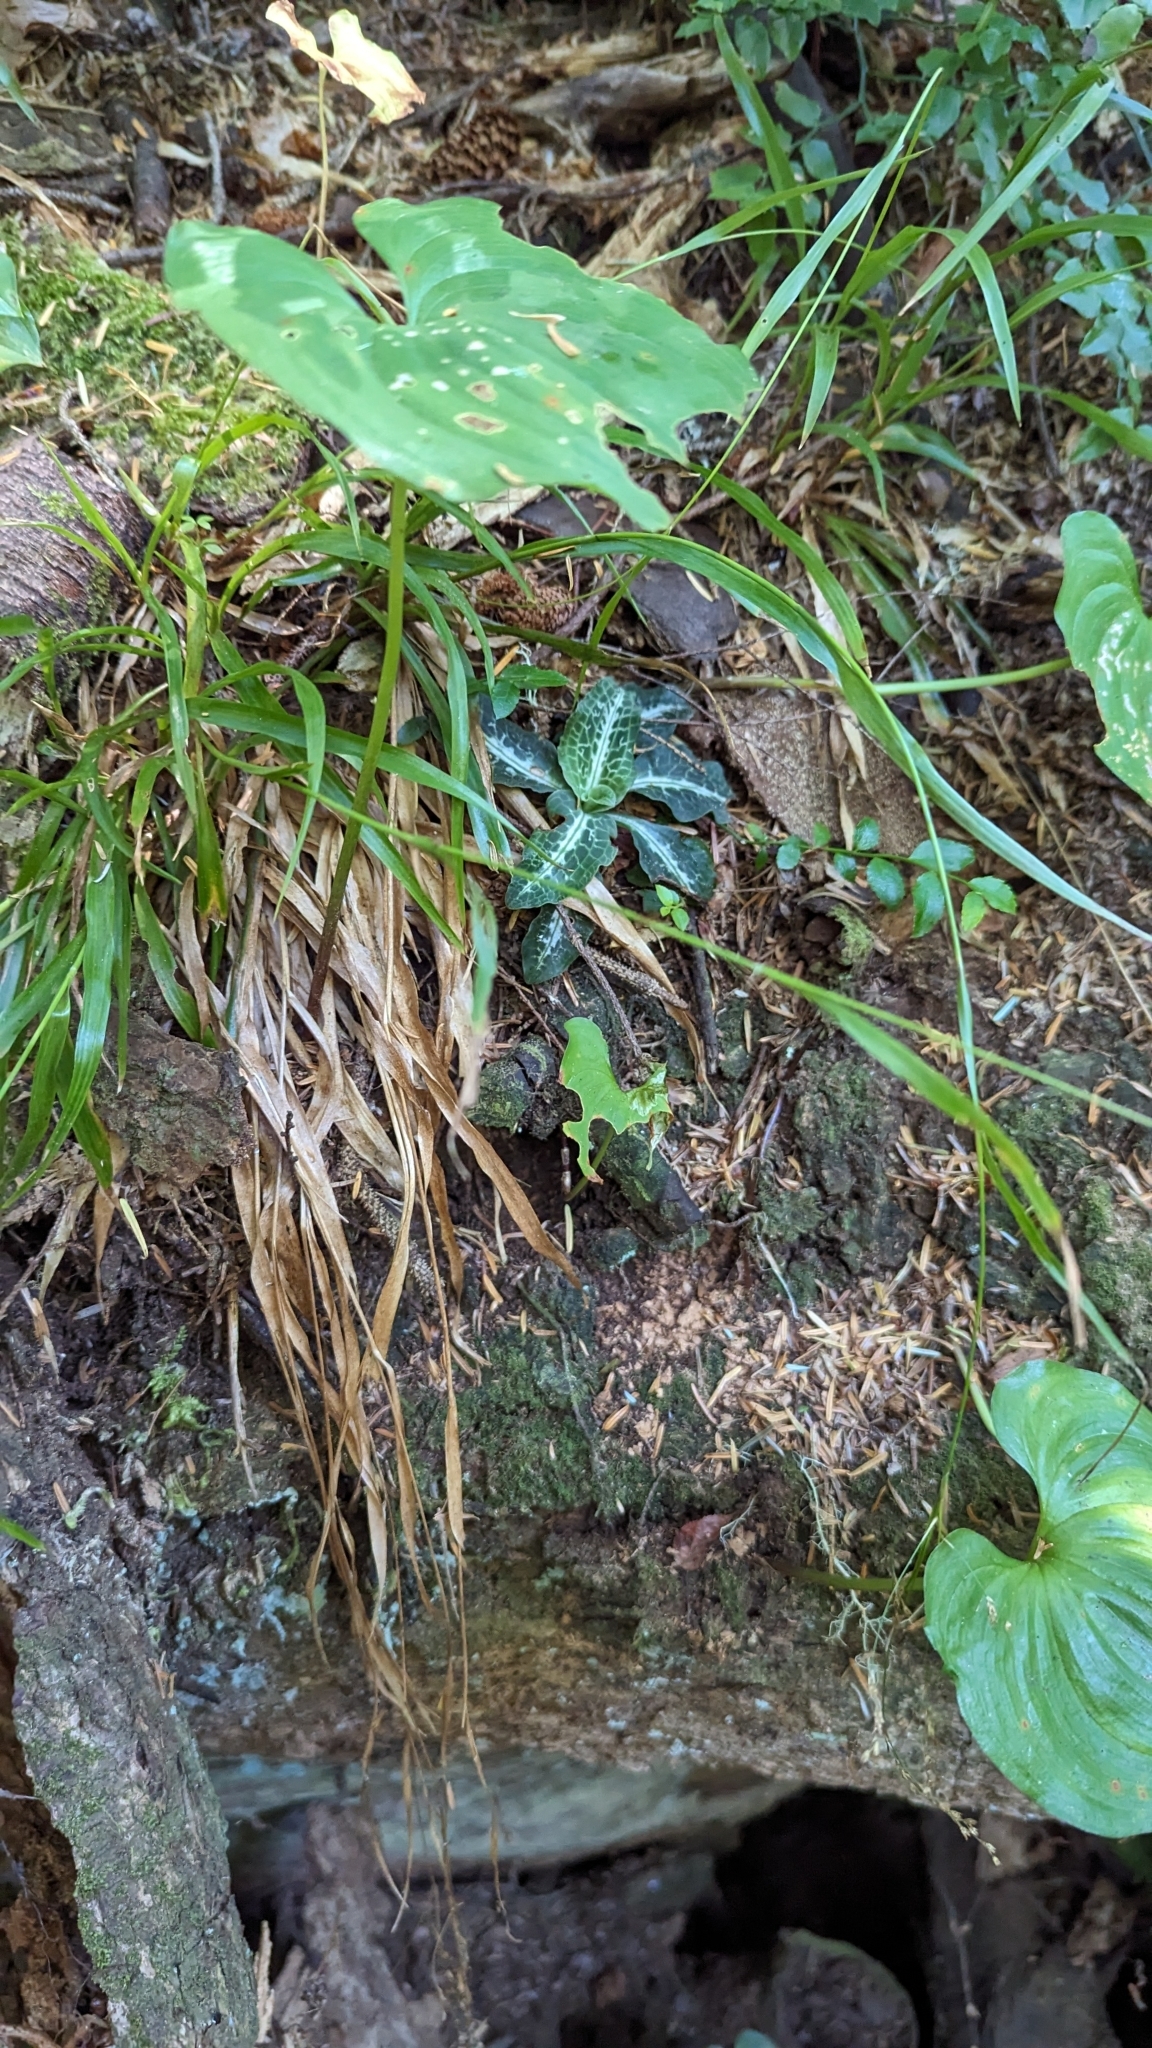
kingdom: Plantae
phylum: Tracheophyta
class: Liliopsida
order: Asparagales
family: Orchidaceae
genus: Goodyera
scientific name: Goodyera oblongifolia
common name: Giant rattlesnake-plantain
